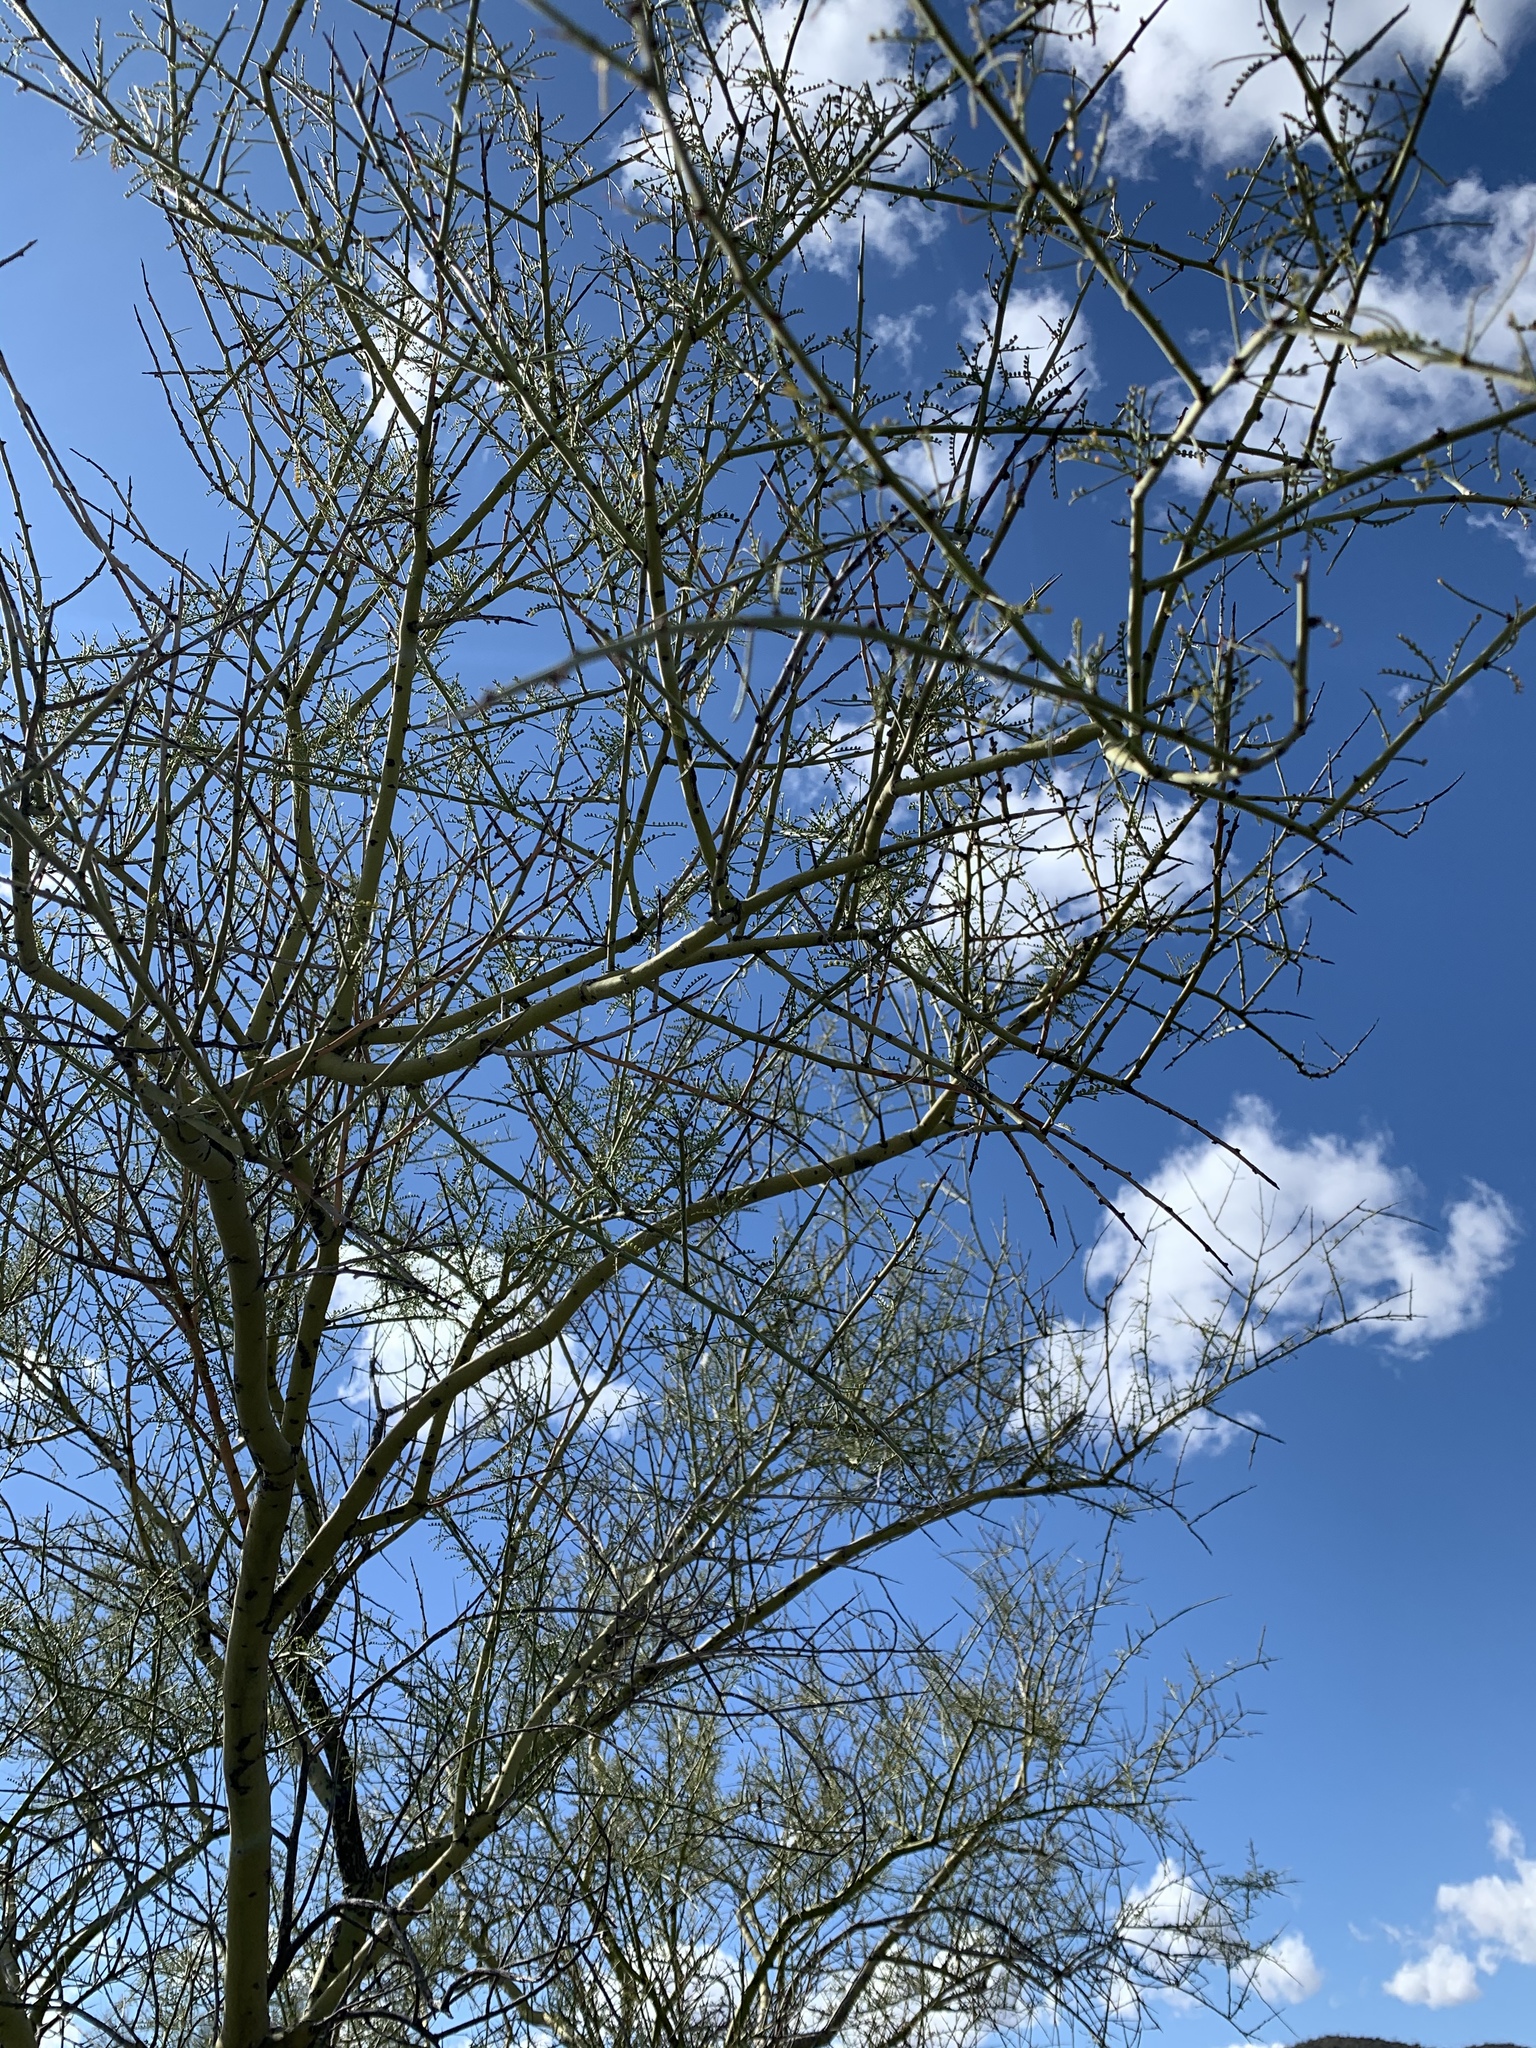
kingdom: Plantae
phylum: Tracheophyta
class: Magnoliopsida
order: Fabales
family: Fabaceae
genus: Parkinsonia
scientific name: Parkinsonia microphylla
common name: Yellow paloverde
